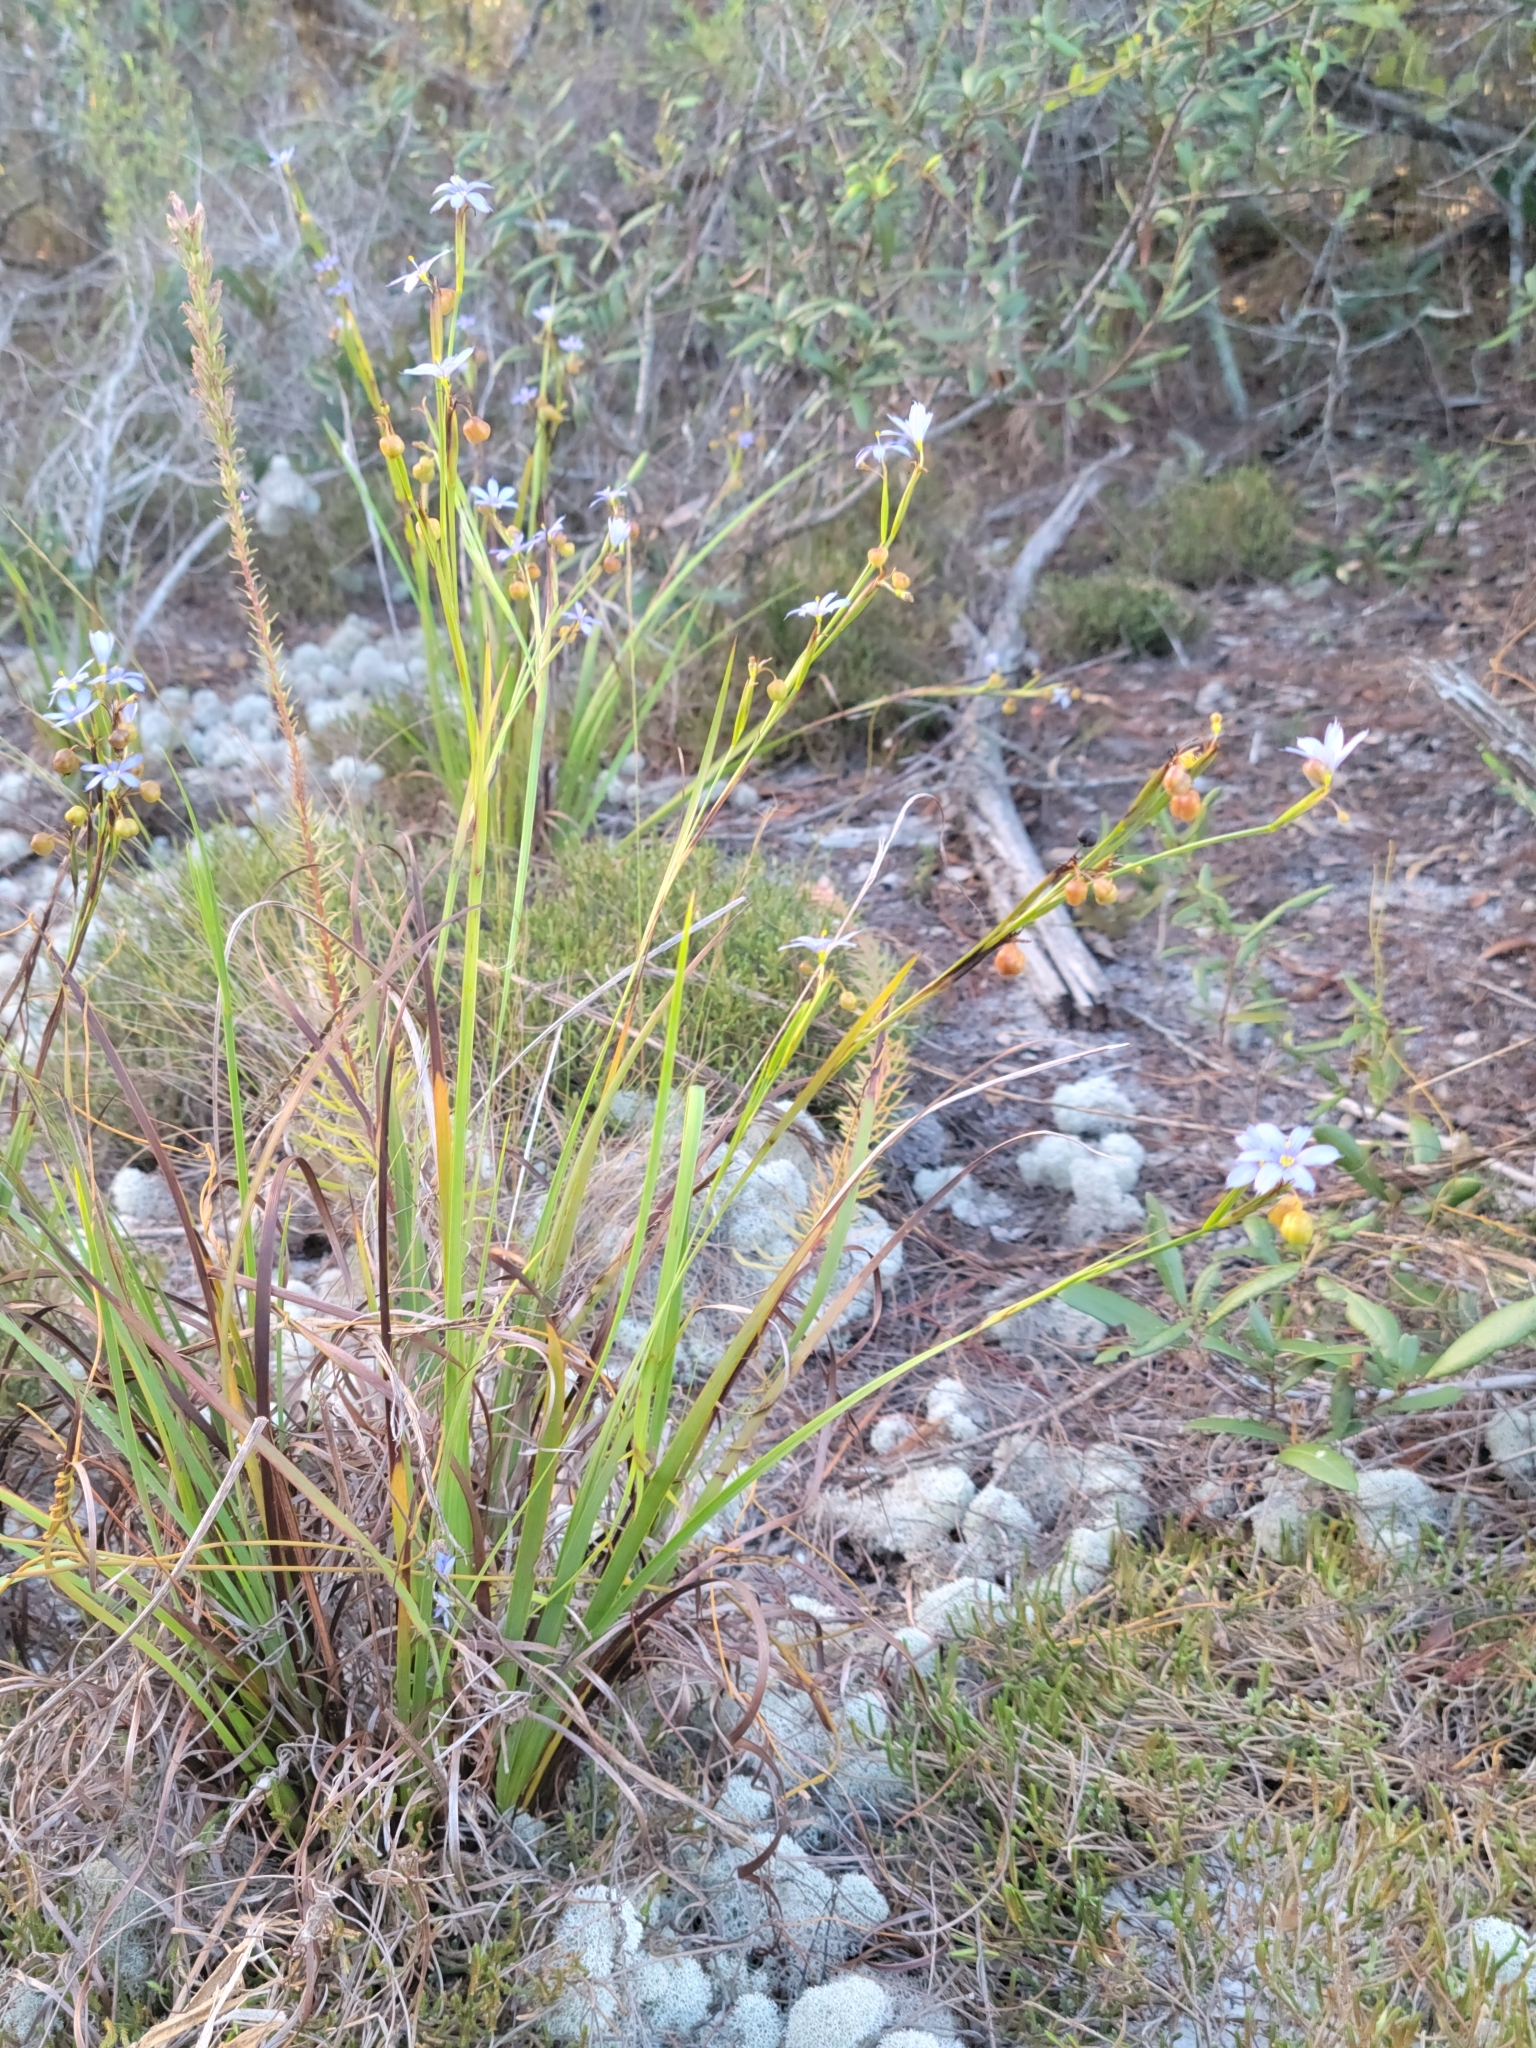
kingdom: Plantae
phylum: Tracheophyta
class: Liliopsida
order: Asparagales
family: Iridaceae
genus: Sisyrinchium
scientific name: Sisyrinchium xerophyllum
